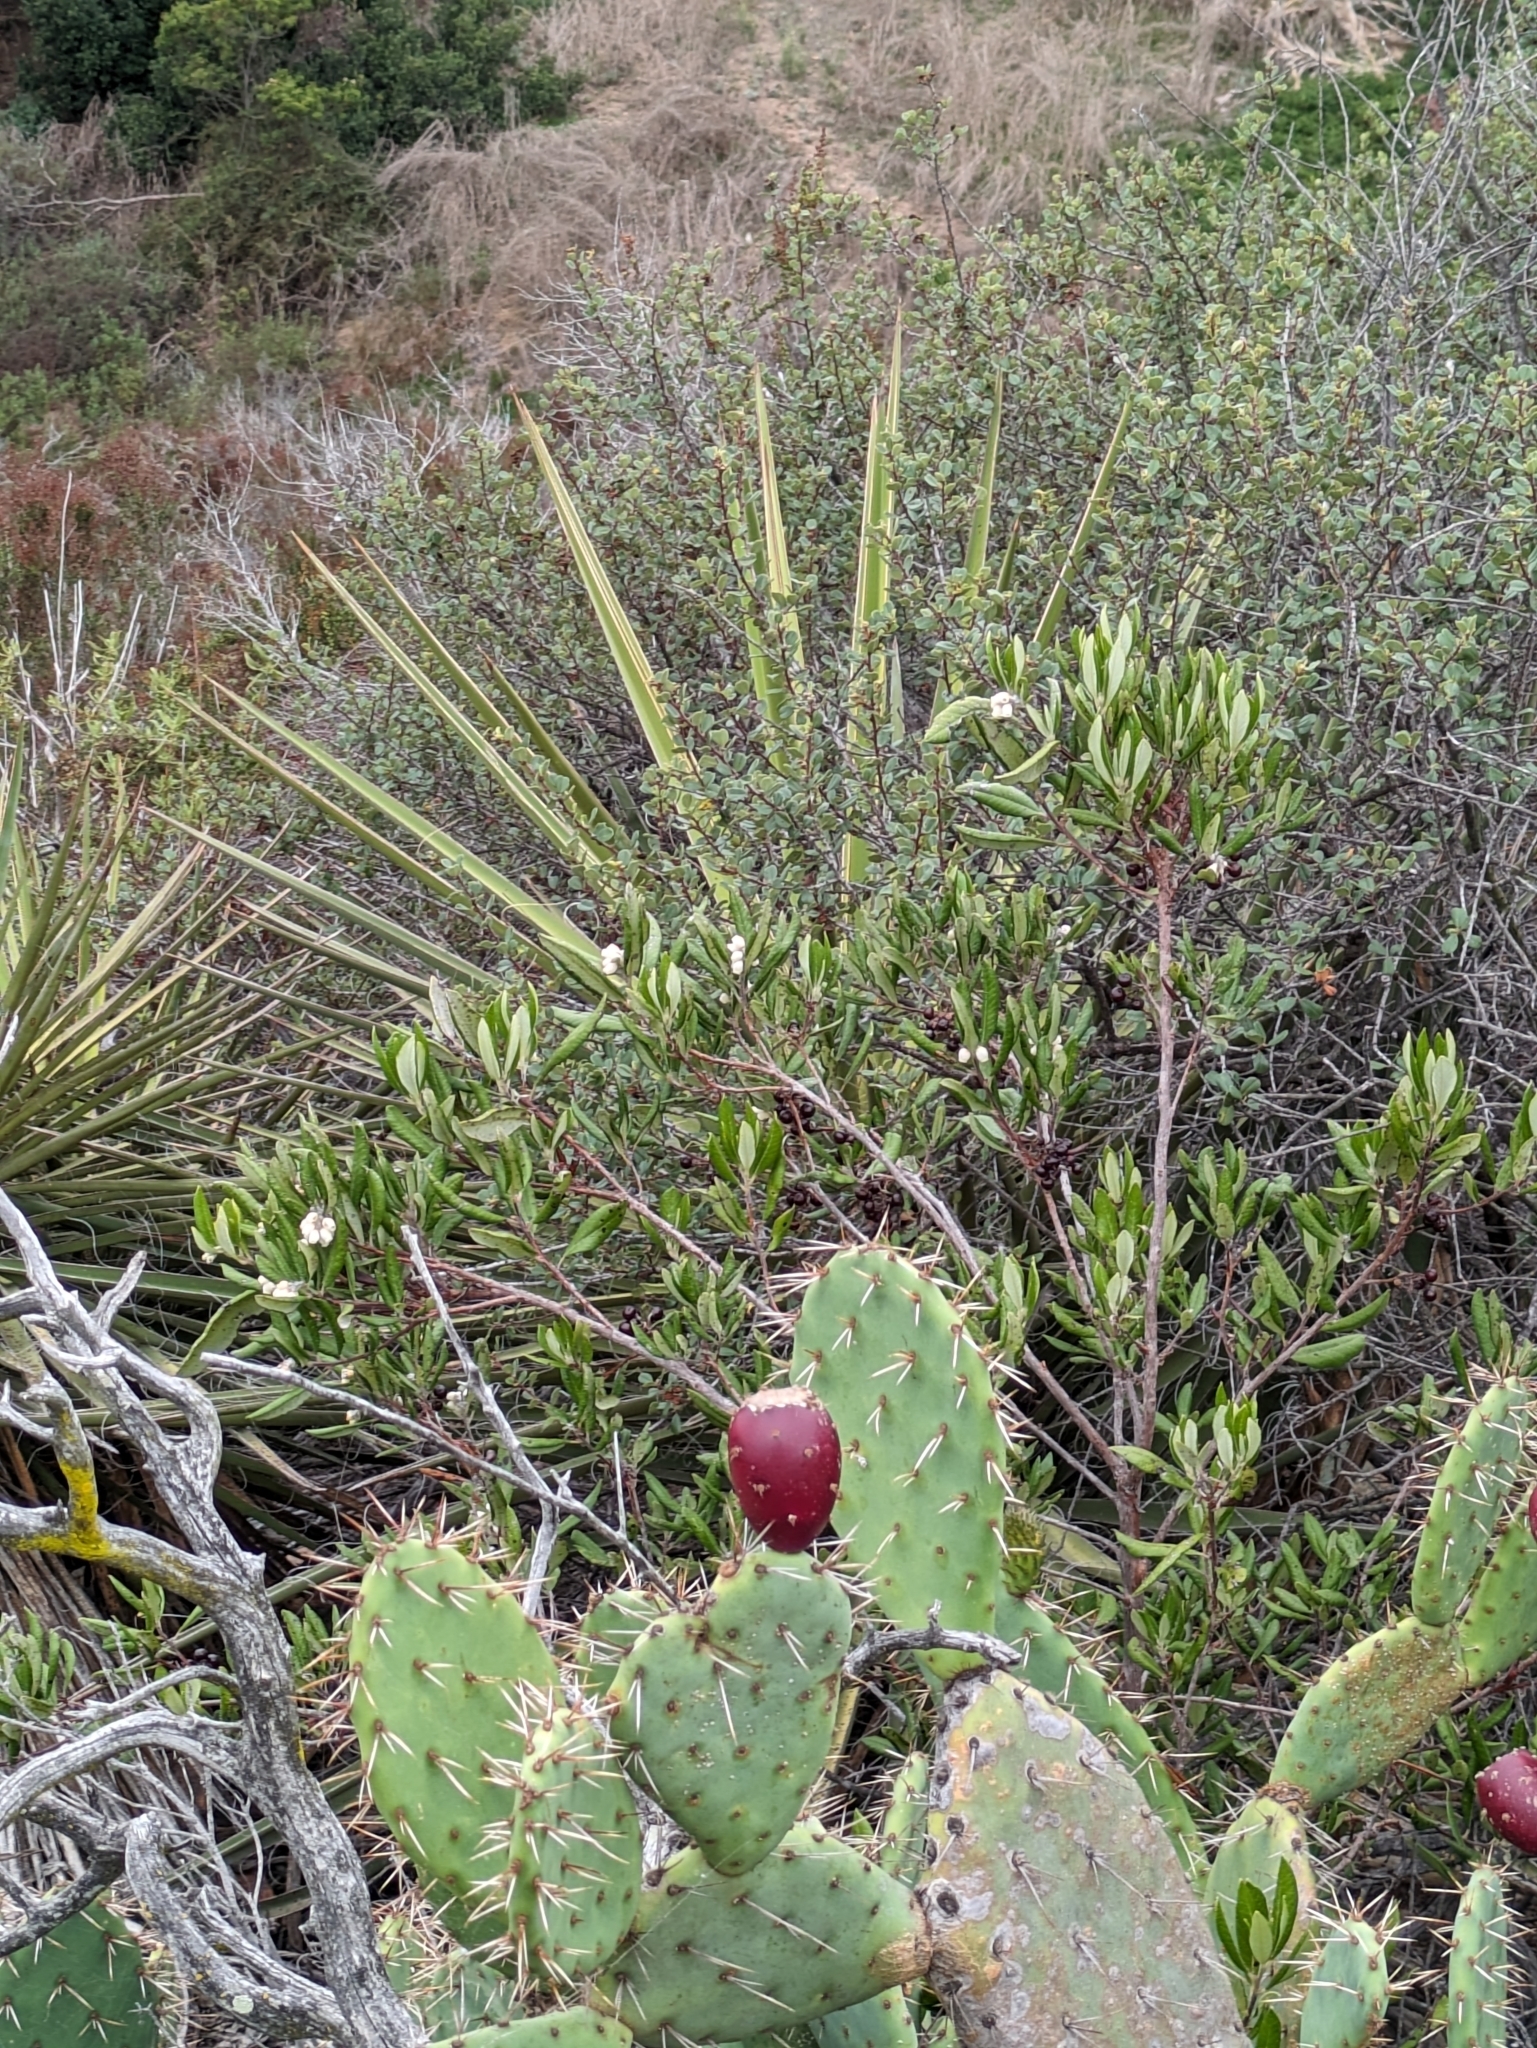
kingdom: Plantae
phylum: Tracheophyta
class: Magnoliopsida
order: Ericales
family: Ericaceae
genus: Arctostaphylos
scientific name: Arctostaphylos bicolor
